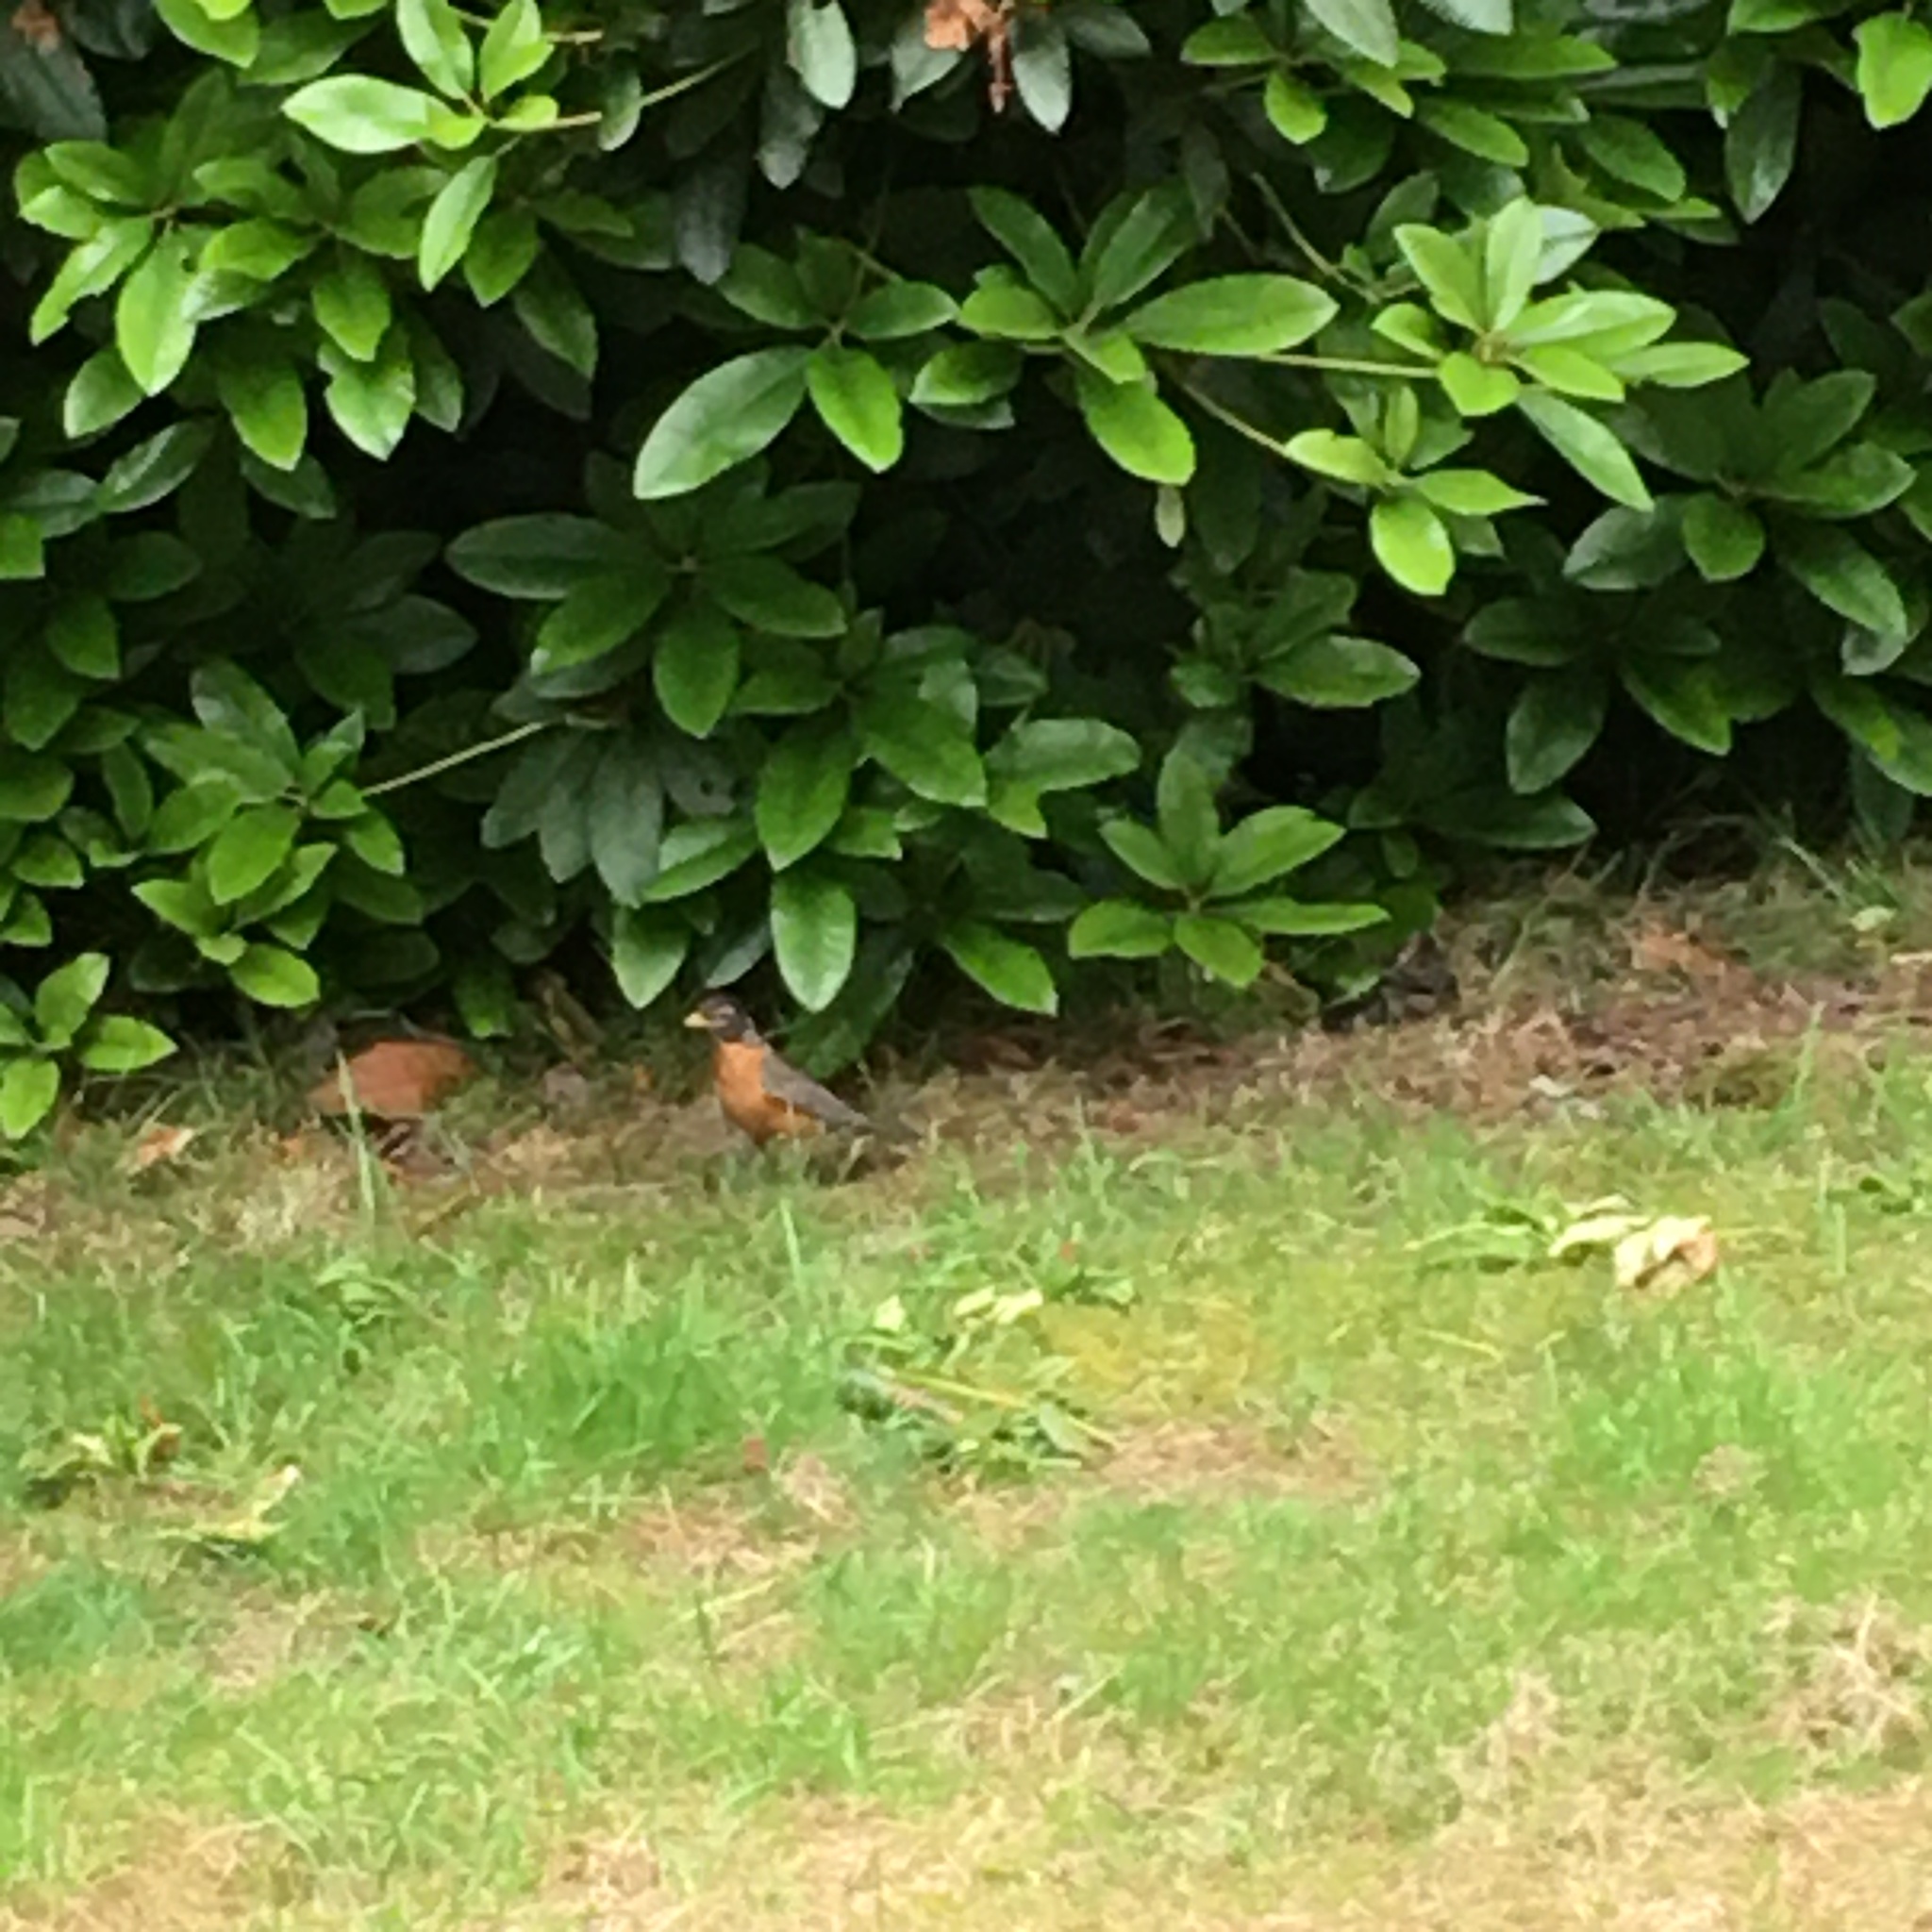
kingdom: Animalia
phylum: Chordata
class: Aves
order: Passeriformes
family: Turdidae
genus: Turdus
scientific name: Turdus migratorius
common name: American robin
